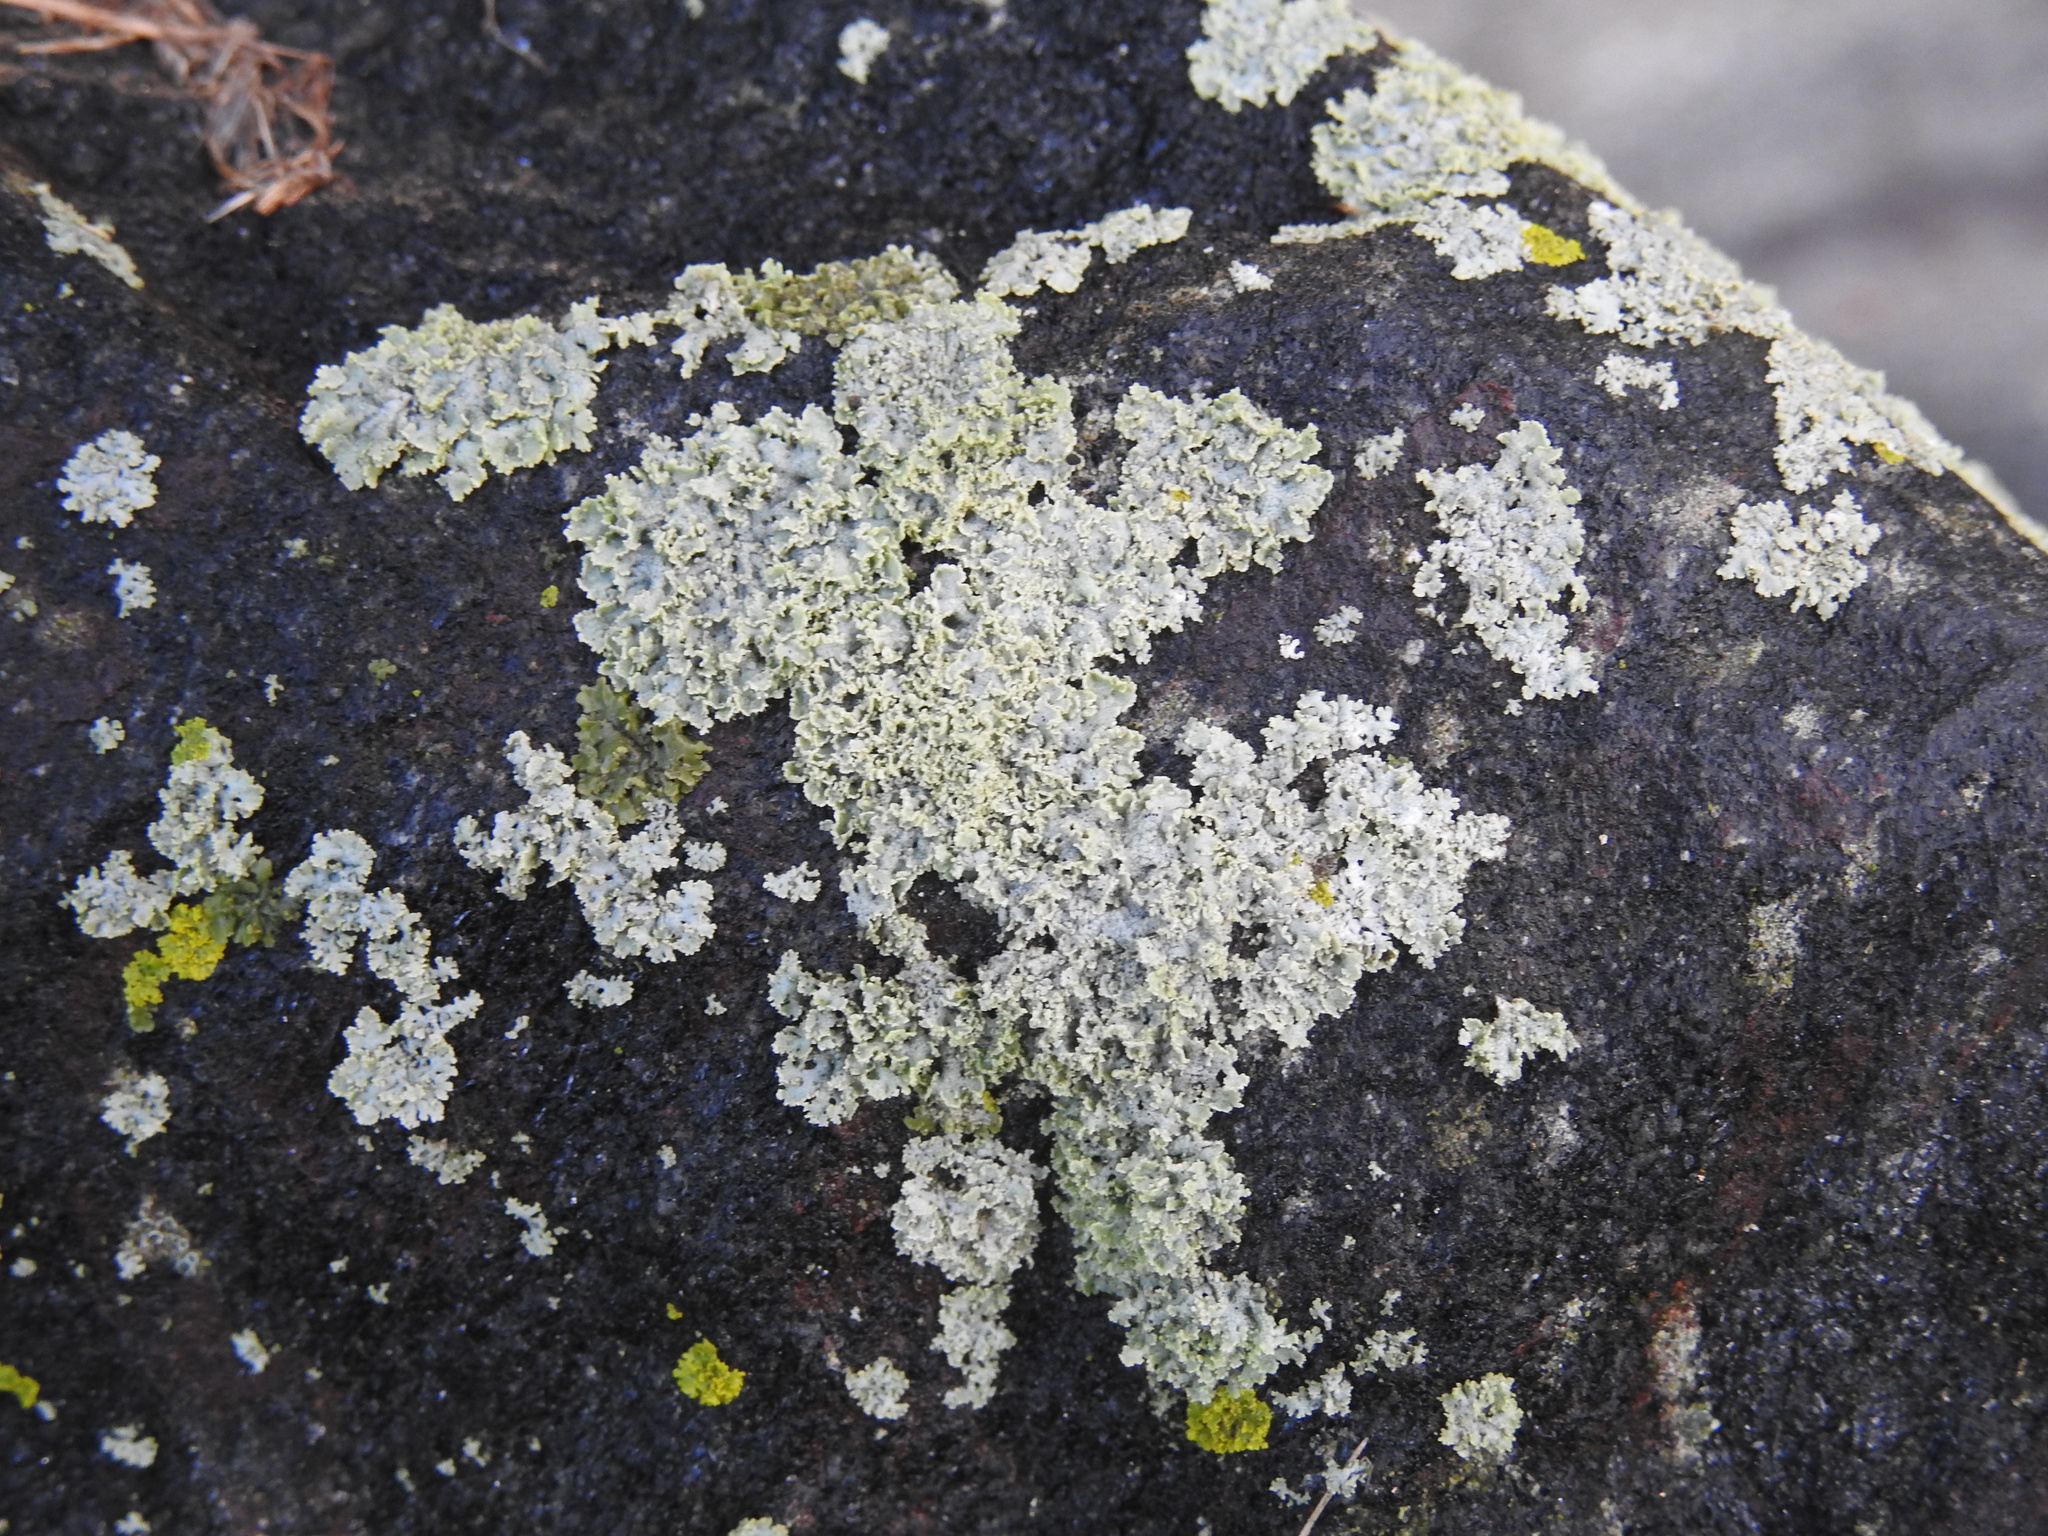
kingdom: Fungi
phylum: Ascomycota
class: Lecanoromycetes
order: Caliciales
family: Physciaceae
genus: Physcia
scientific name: Physcia millegrana
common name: Rosette lichen
